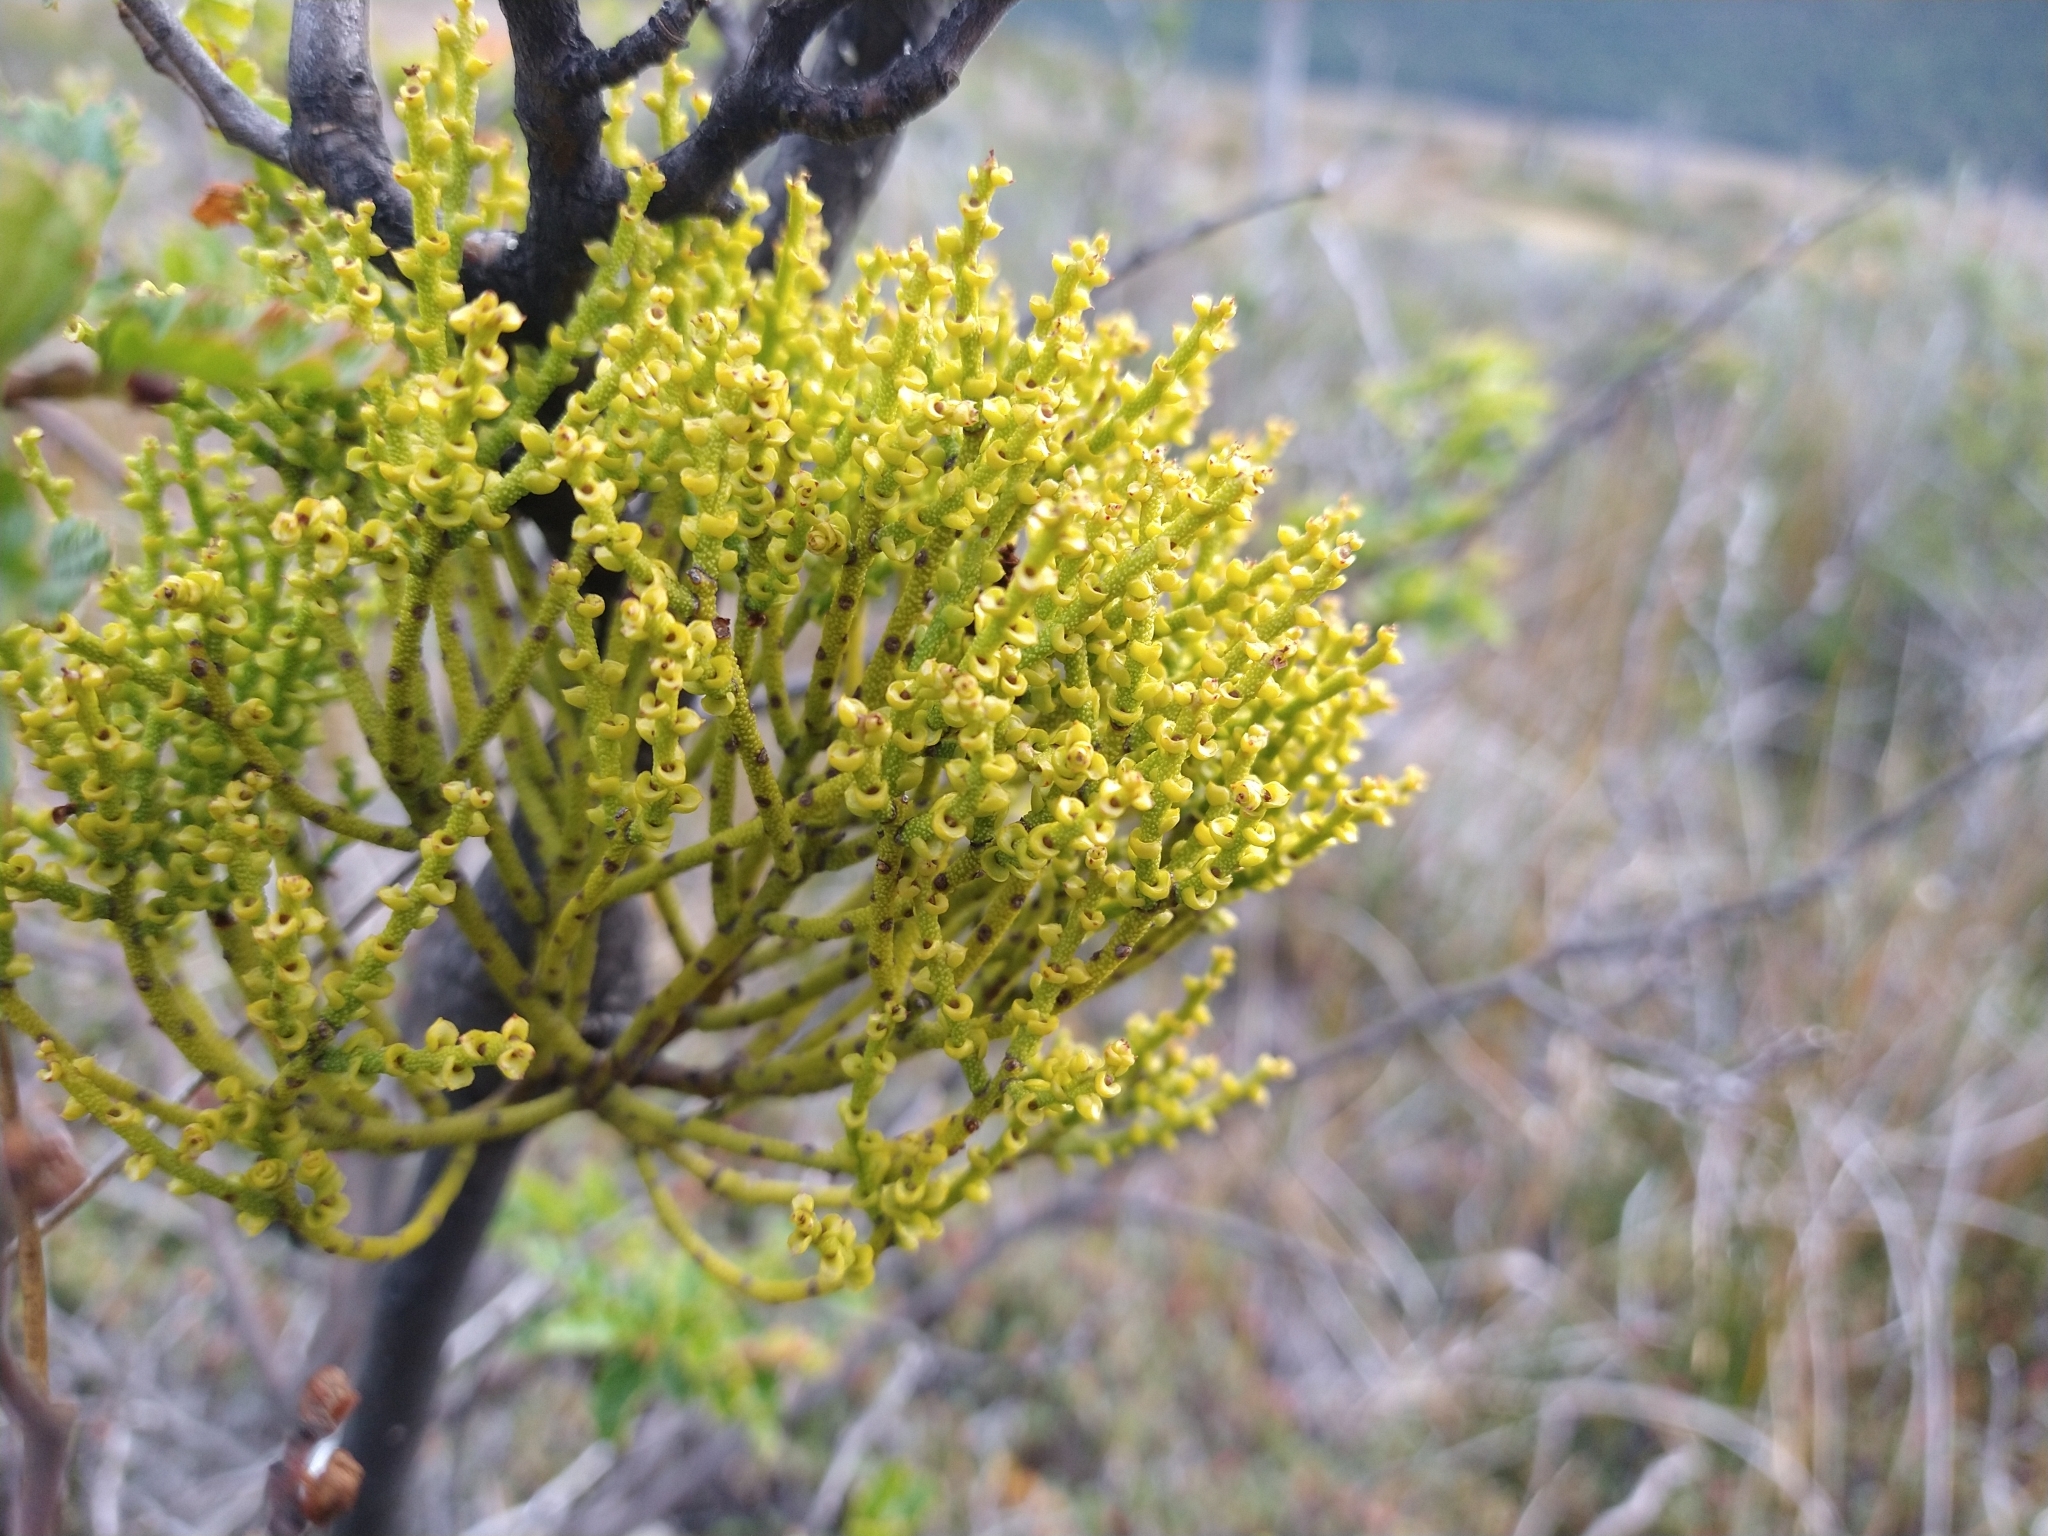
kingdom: Plantae
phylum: Tracheophyta
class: Magnoliopsida
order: Santalales
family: Misodendraceae
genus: Misodendrum
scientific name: Misodendrum punctulatum
